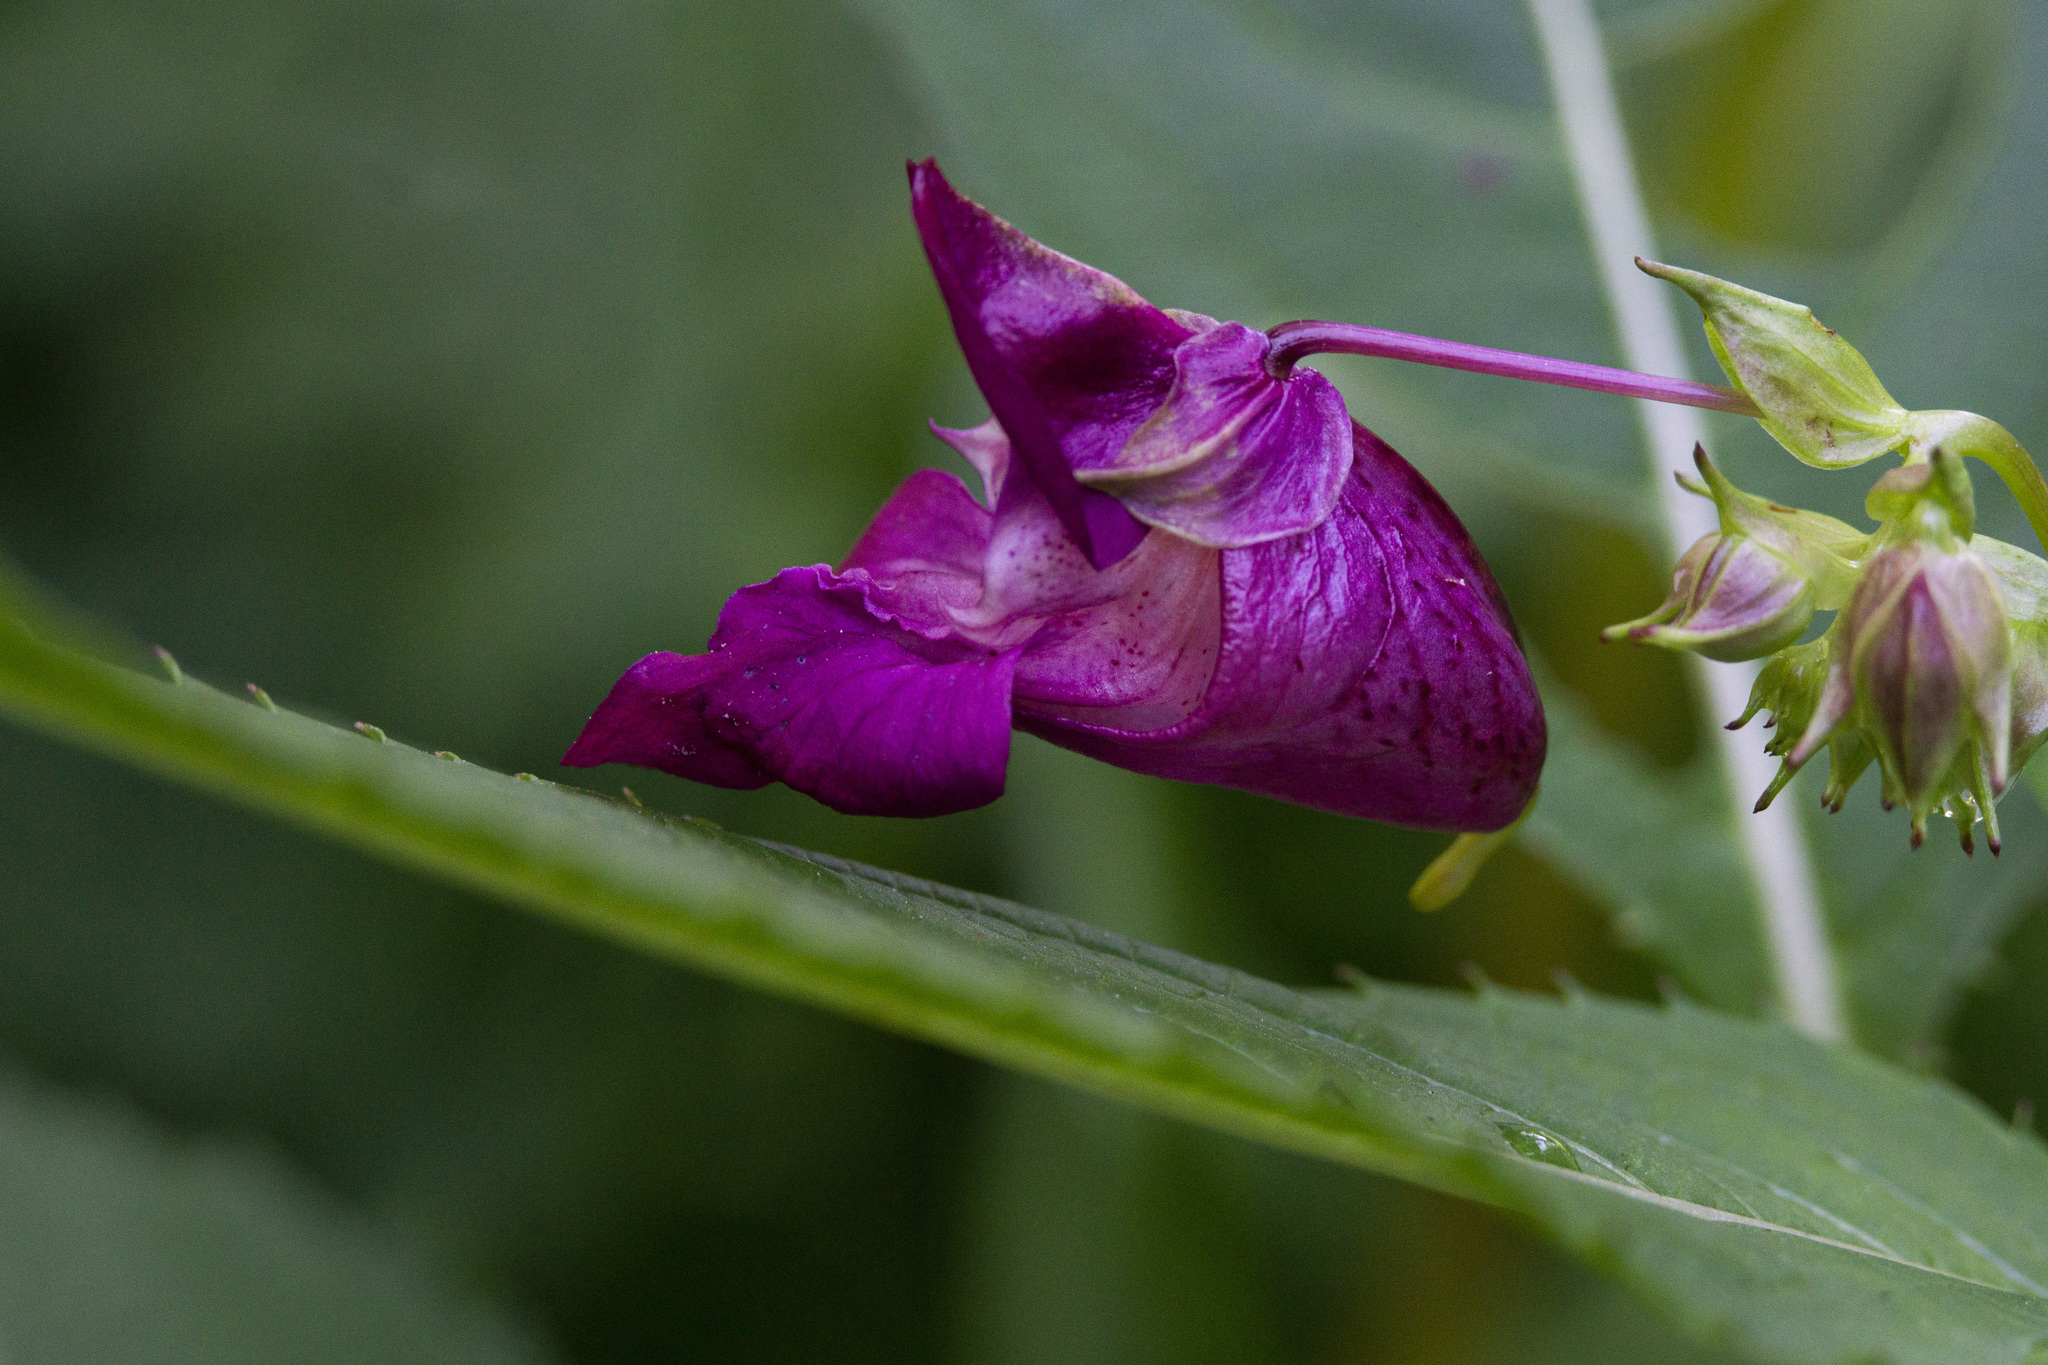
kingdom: Plantae
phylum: Tracheophyta
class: Magnoliopsida
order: Ericales
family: Balsaminaceae
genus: Impatiens
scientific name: Impatiens glandulifera
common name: Himalayan balsam
